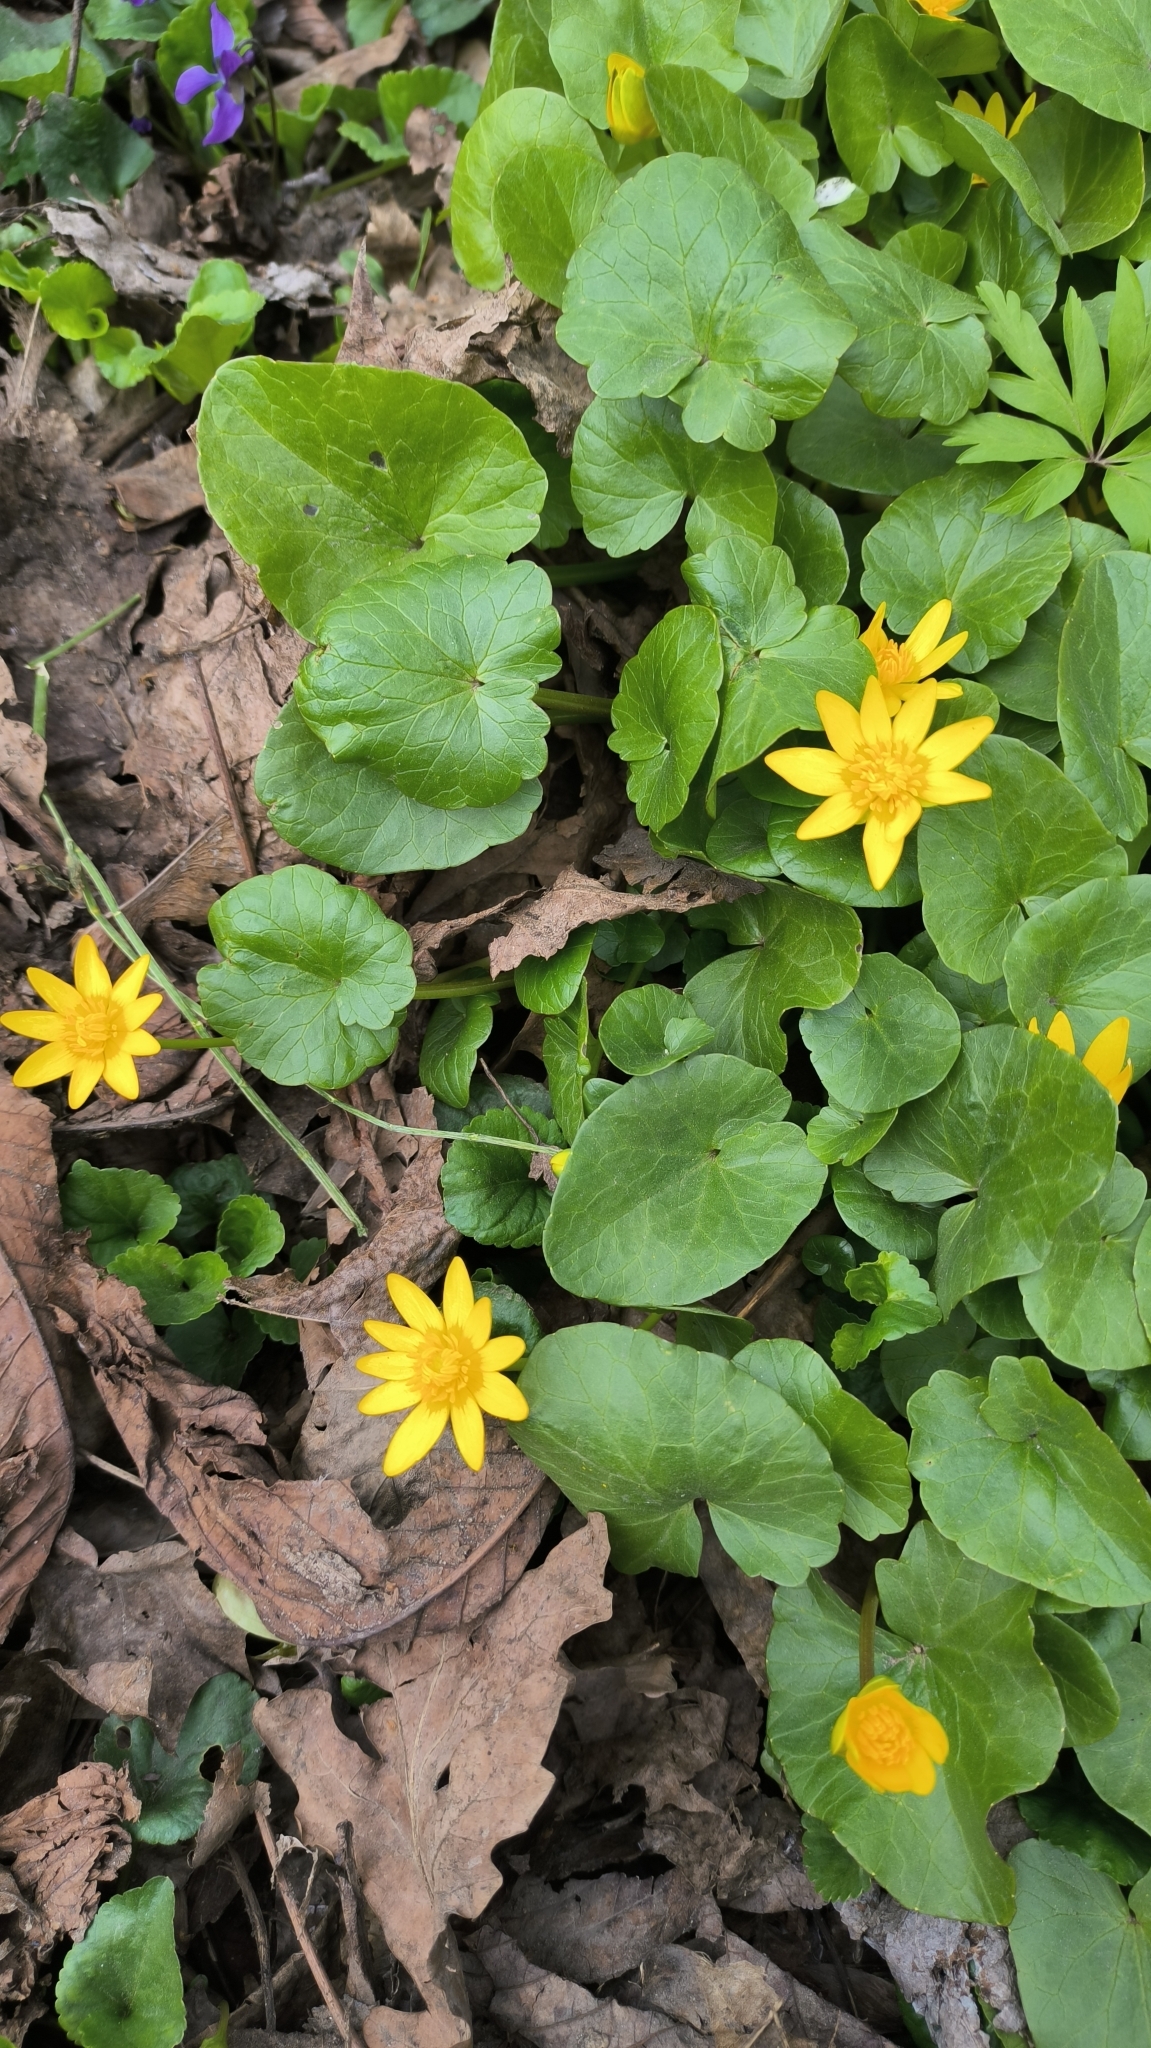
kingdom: Plantae
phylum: Tracheophyta
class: Magnoliopsida
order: Ranunculales
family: Ranunculaceae
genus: Ficaria
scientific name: Ficaria verna
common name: Lesser celandine
